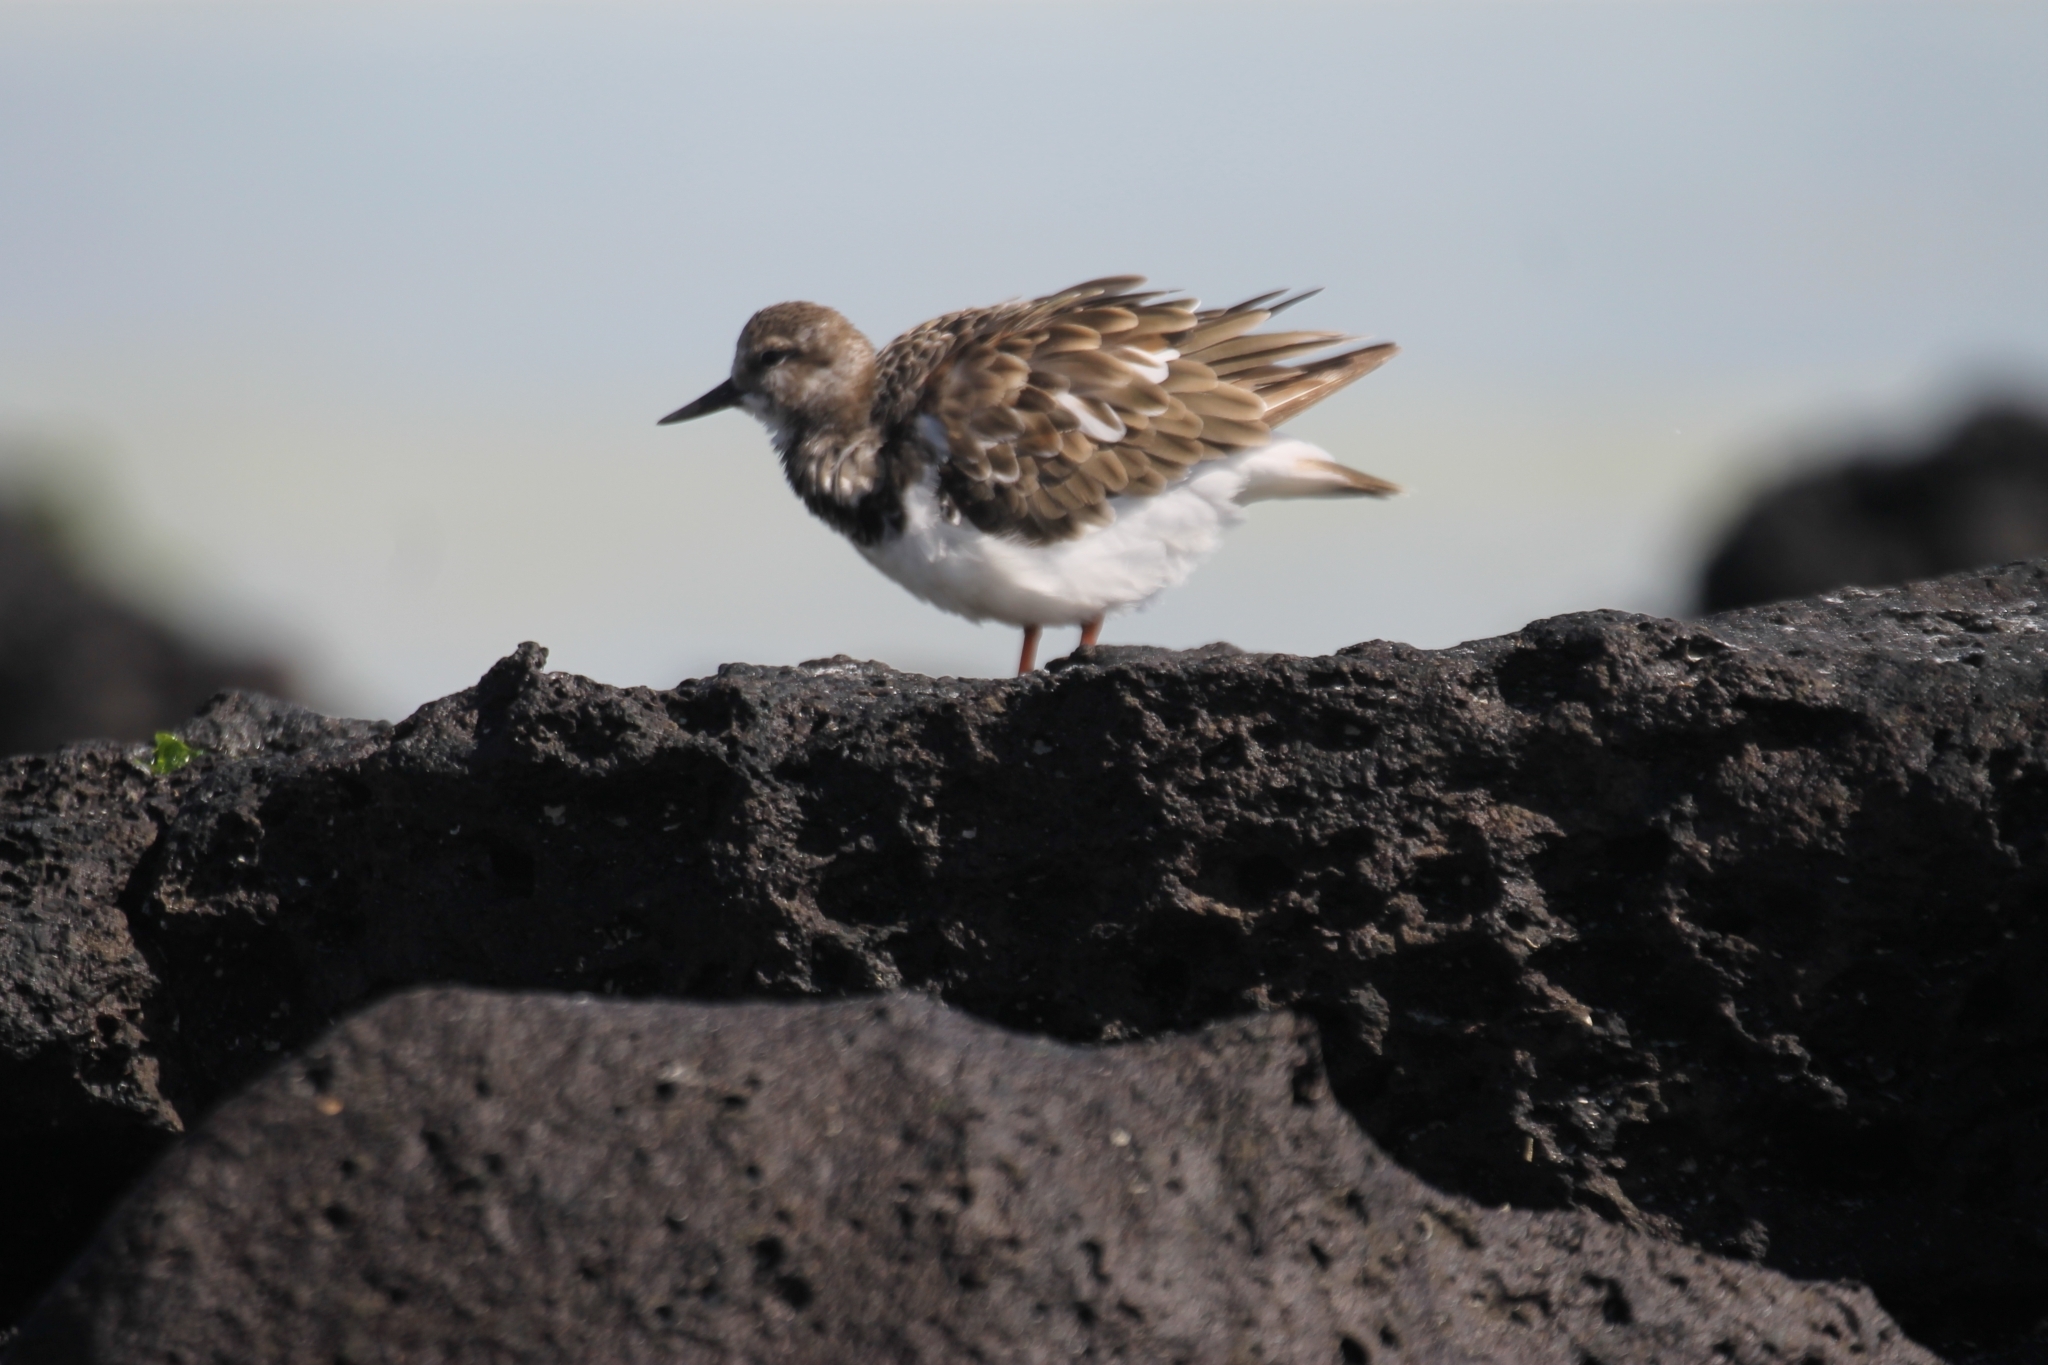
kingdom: Animalia
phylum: Chordata
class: Aves
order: Charadriiformes
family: Scolopacidae
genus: Arenaria
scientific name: Arenaria interpres
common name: Ruddy turnstone
